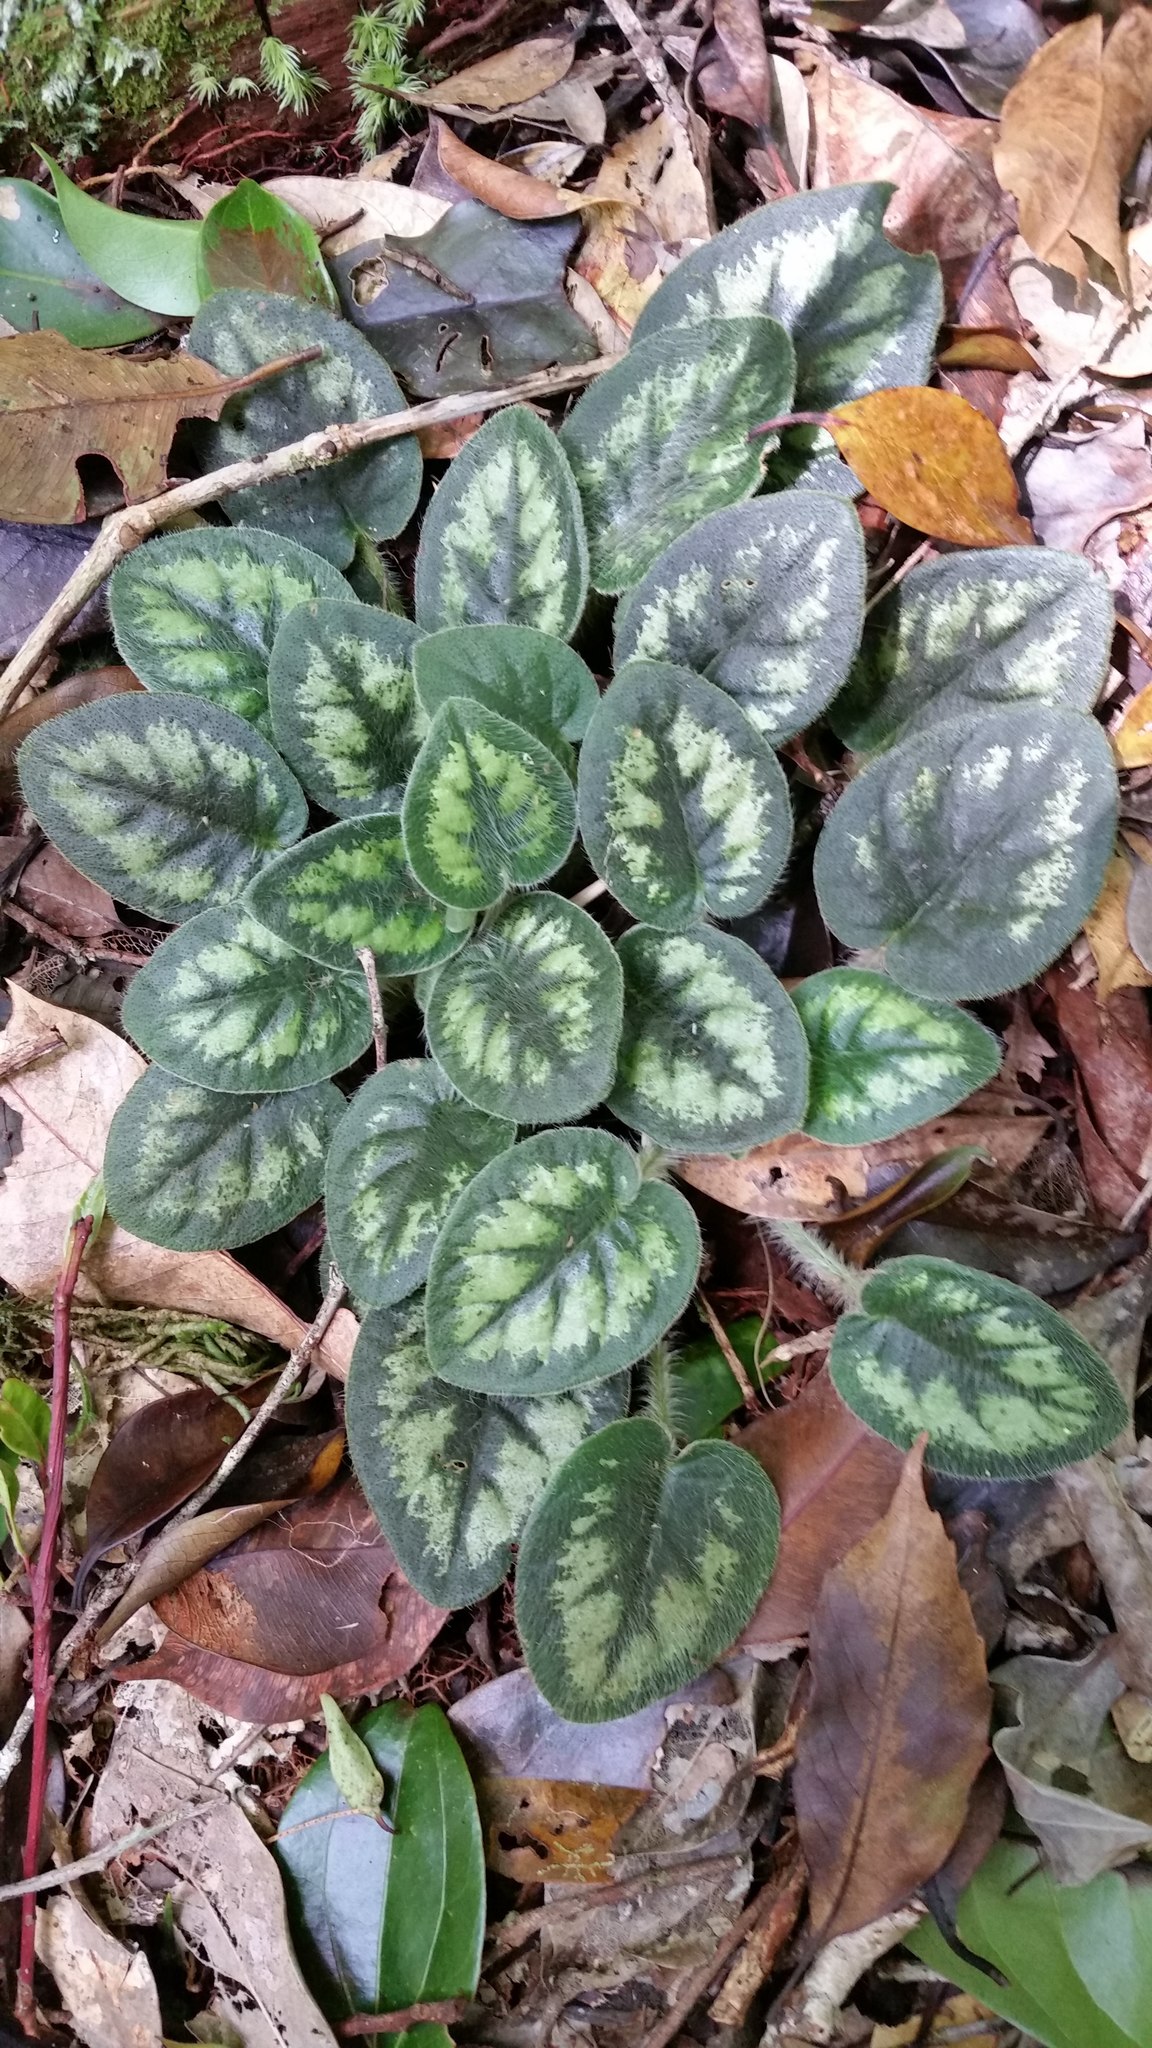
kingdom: Plantae
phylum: Tracheophyta
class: Magnoliopsida
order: Lamiales
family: Gesneriaceae
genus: Primulina
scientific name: Primulina annamensis
